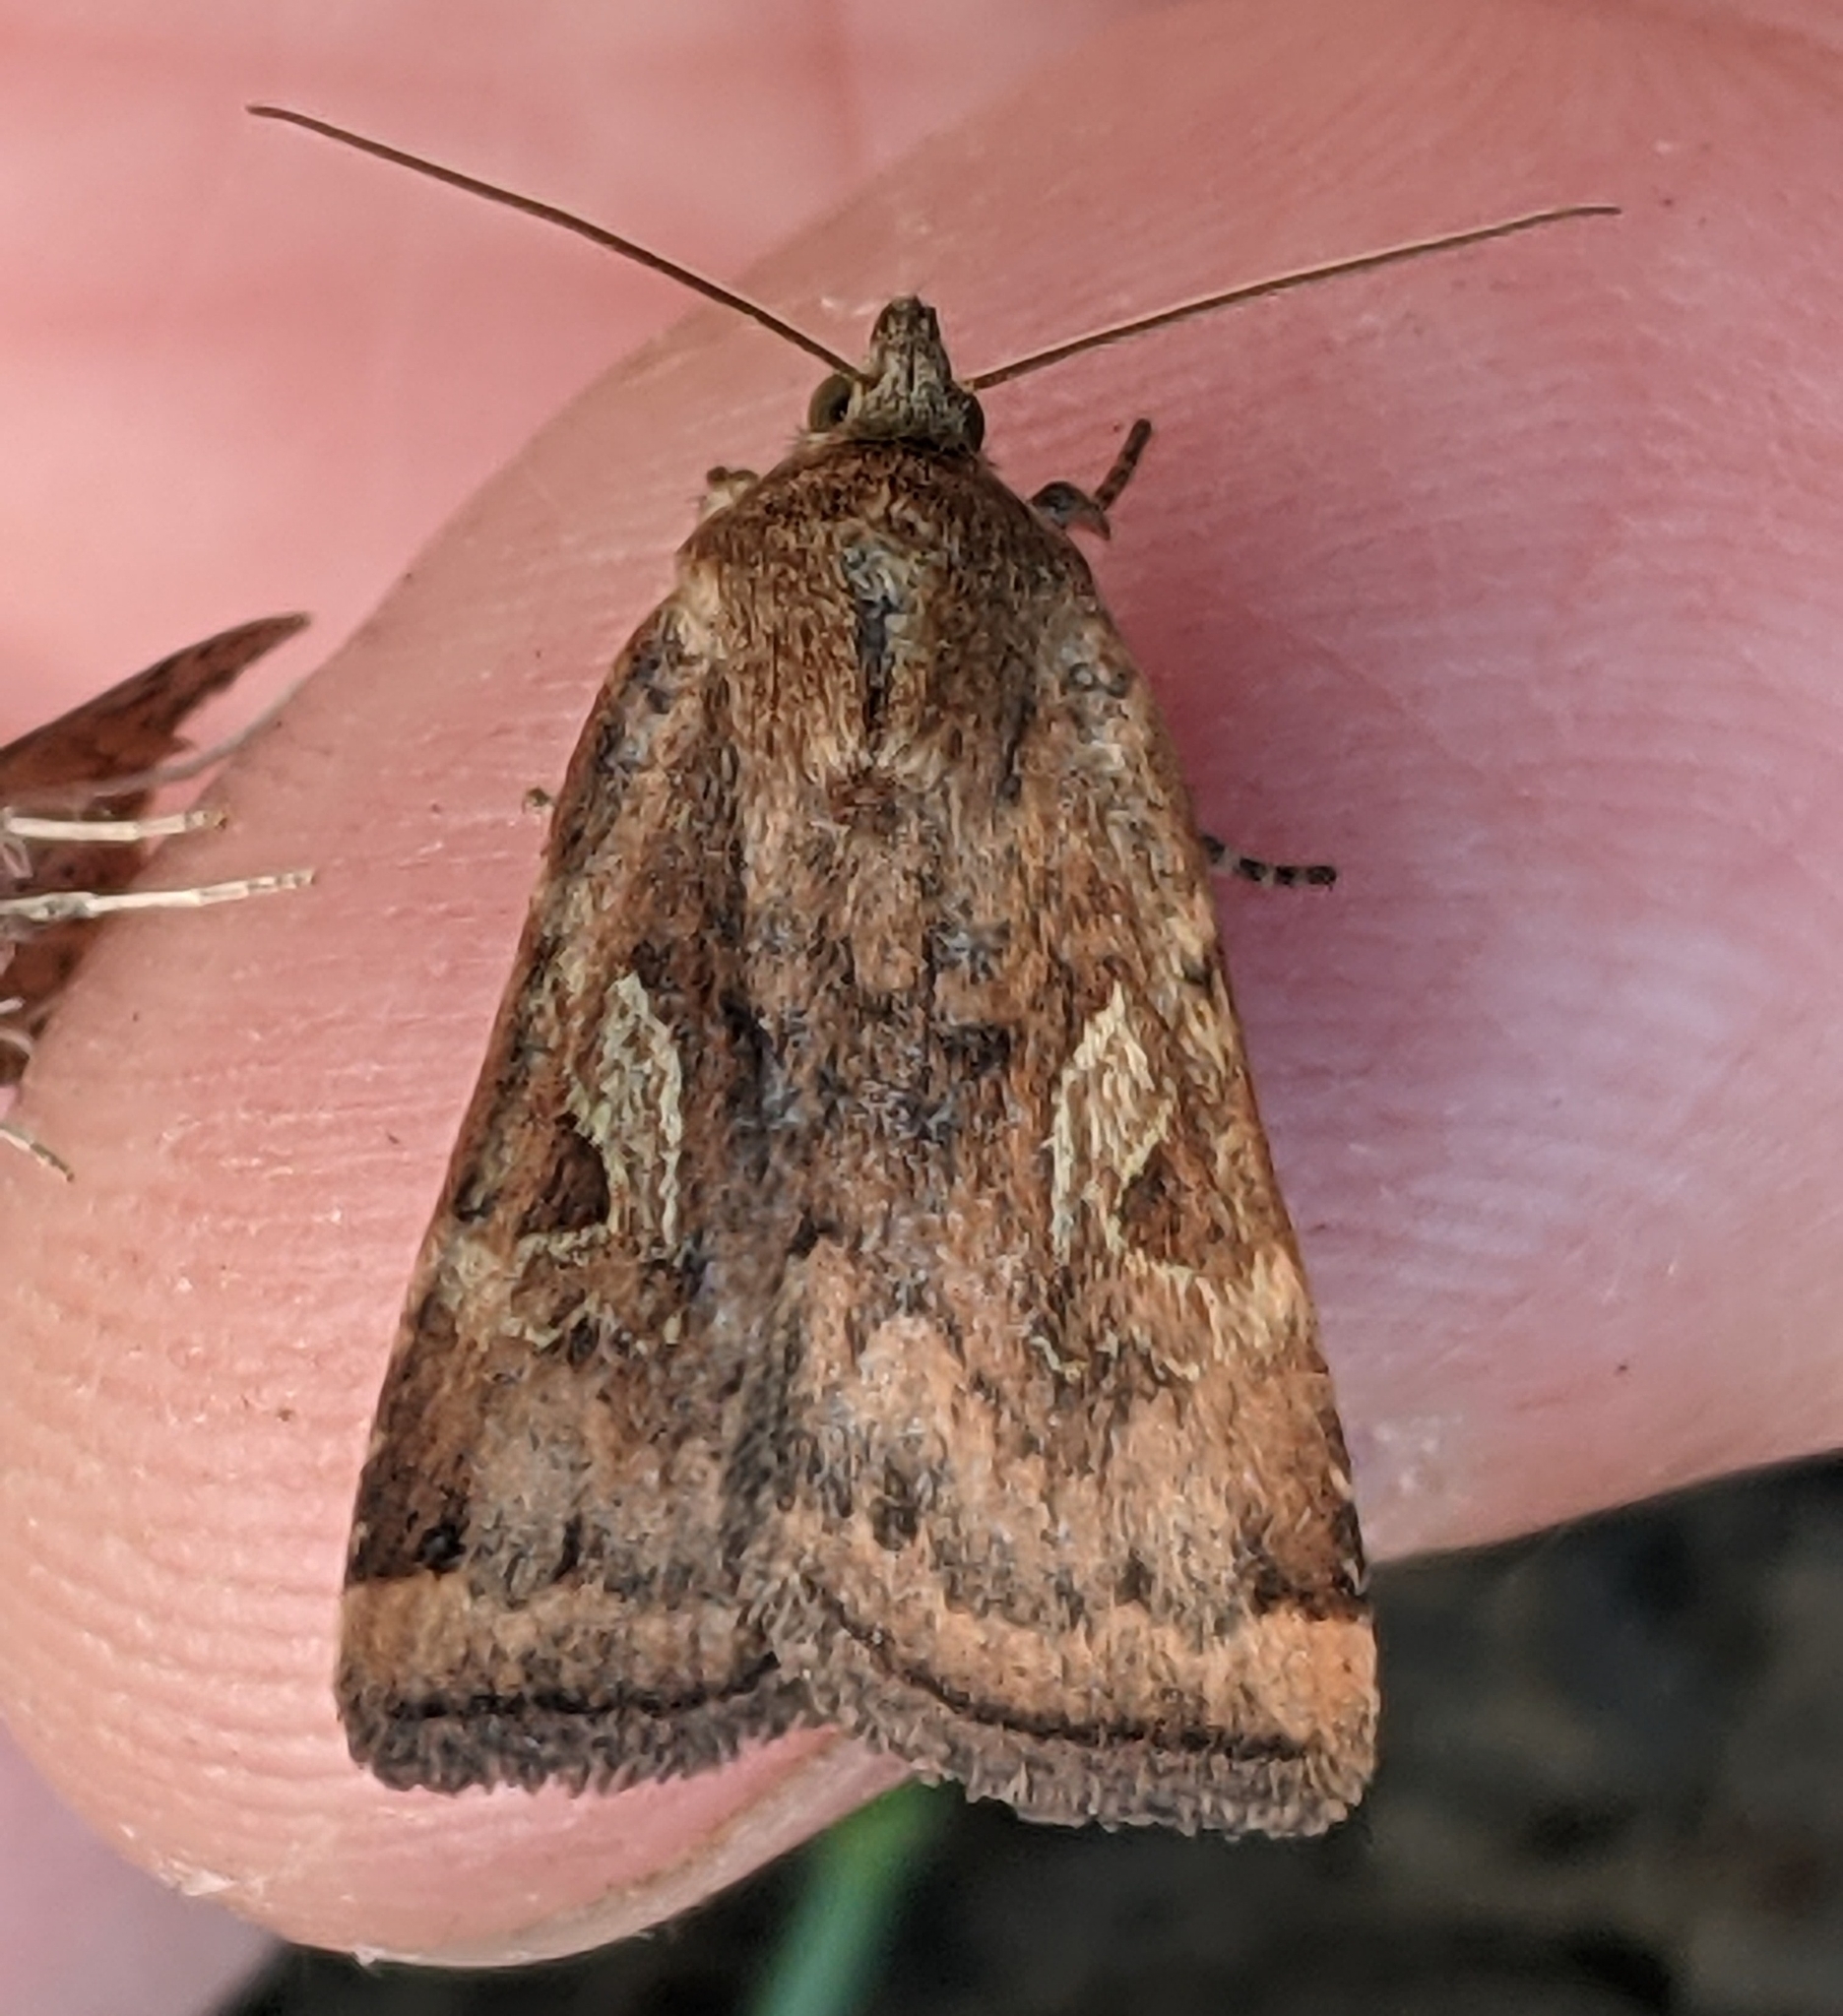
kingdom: Animalia
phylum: Arthropoda
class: Insecta
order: Lepidoptera
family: Noctuidae
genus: Cryptocala
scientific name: Cryptocala acadiensis
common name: Catocaline dart
